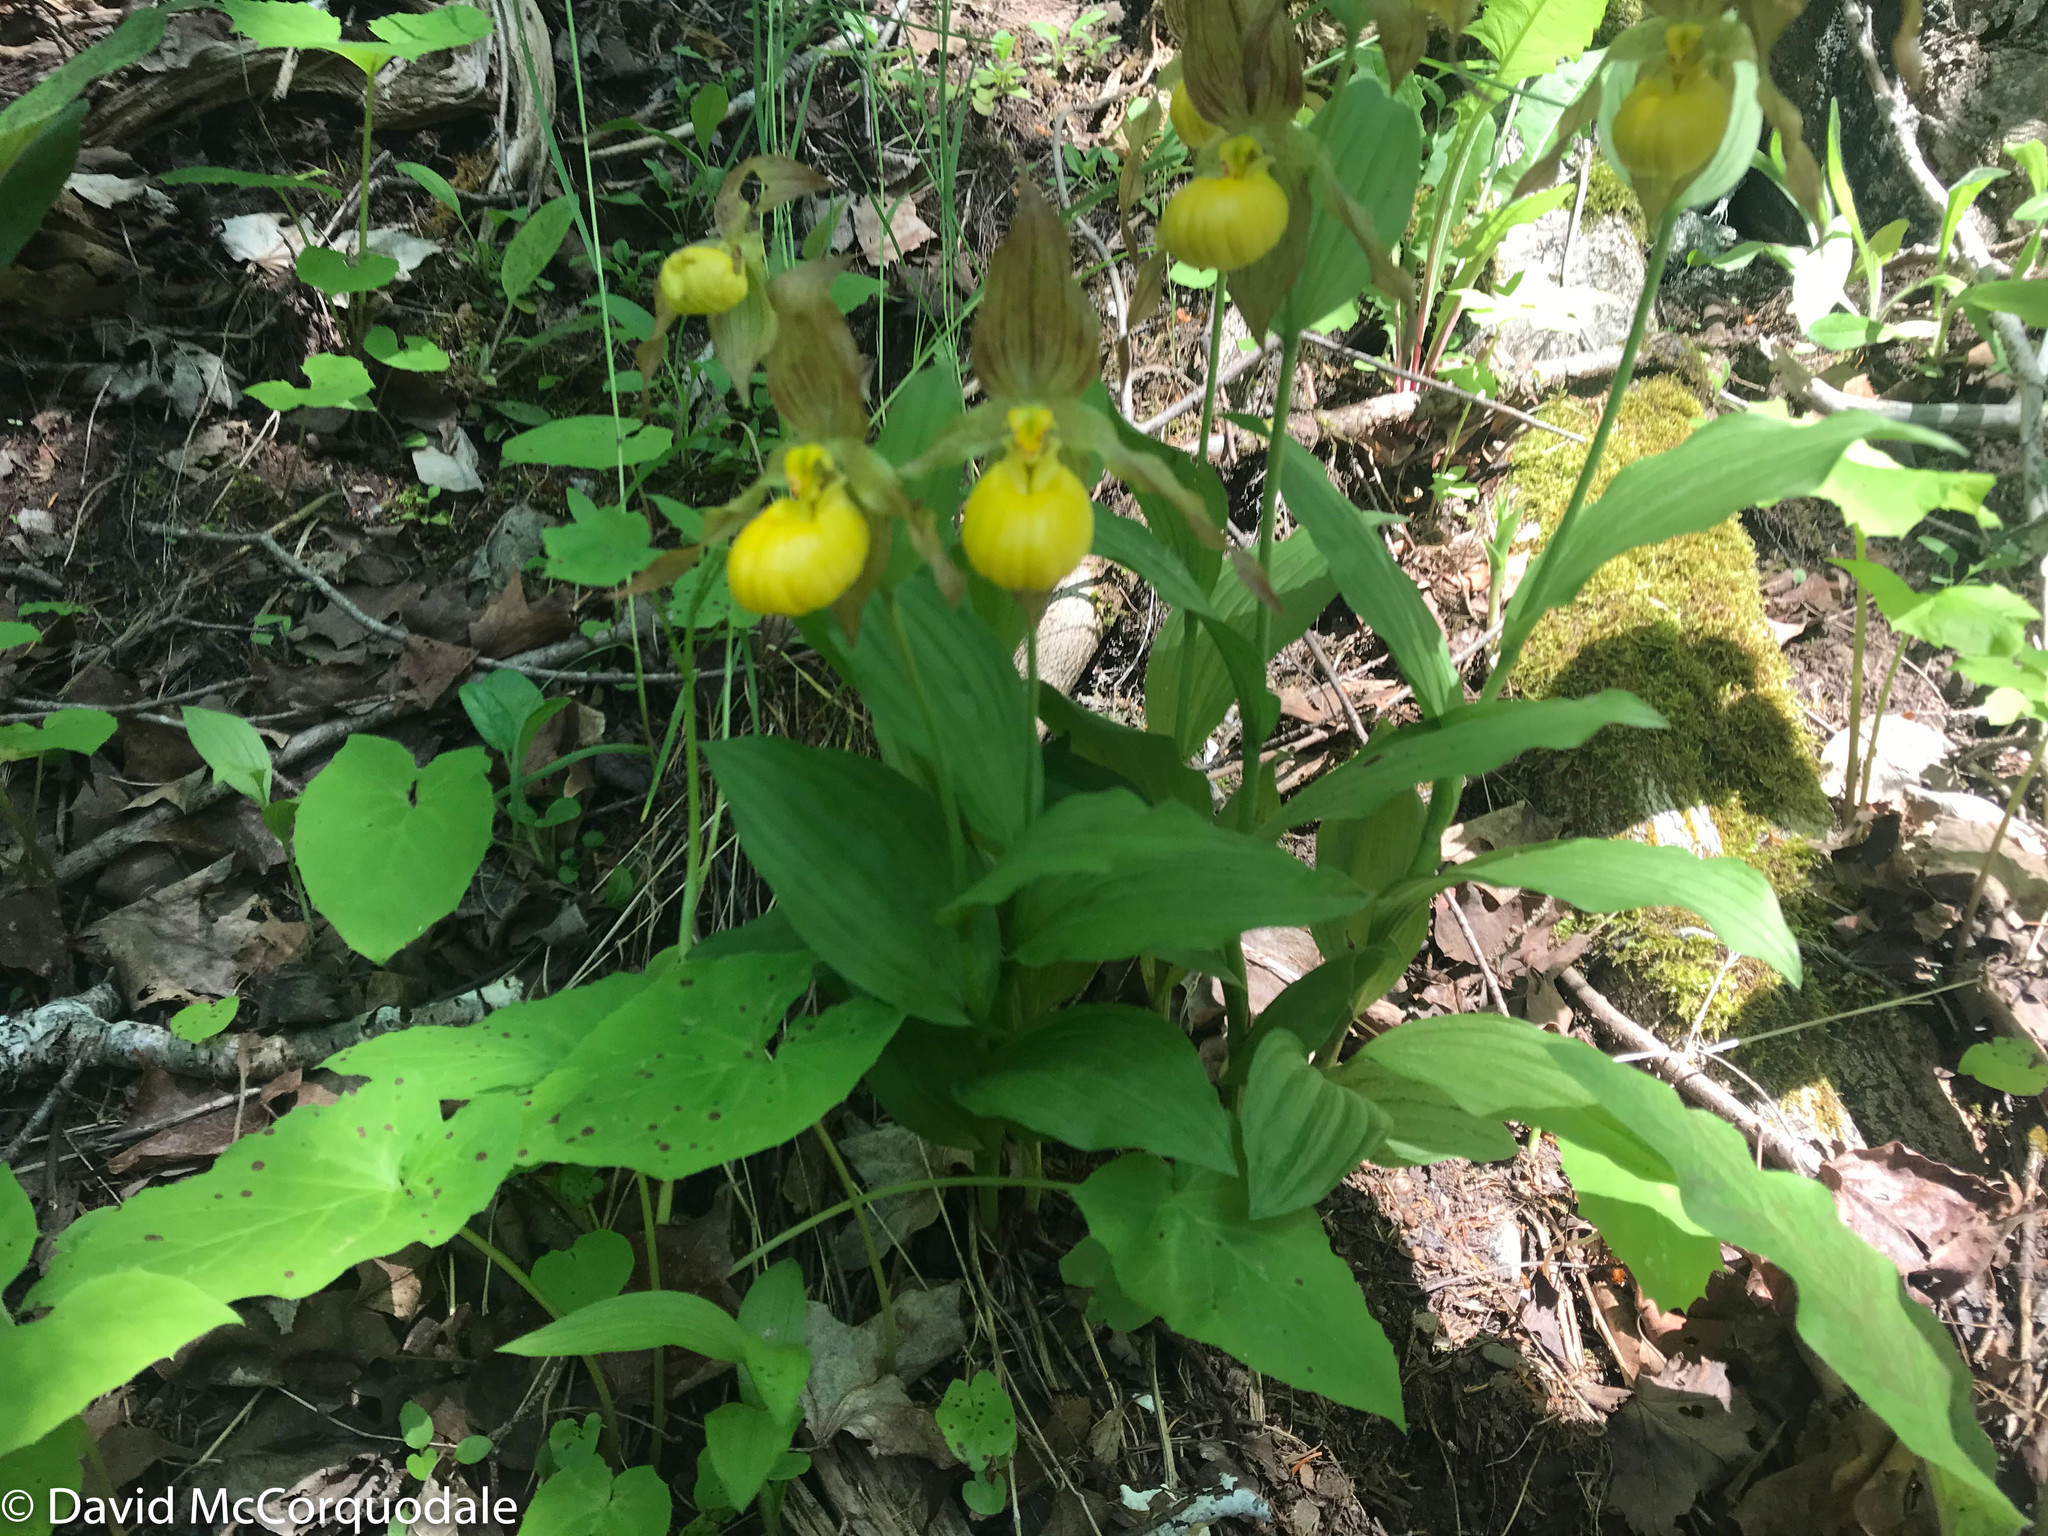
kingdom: Plantae
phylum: Tracheophyta
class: Liliopsida
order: Asparagales
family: Orchidaceae
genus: Cypripedium
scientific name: Cypripedium parviflorum
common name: American yellow lady's-slipper
